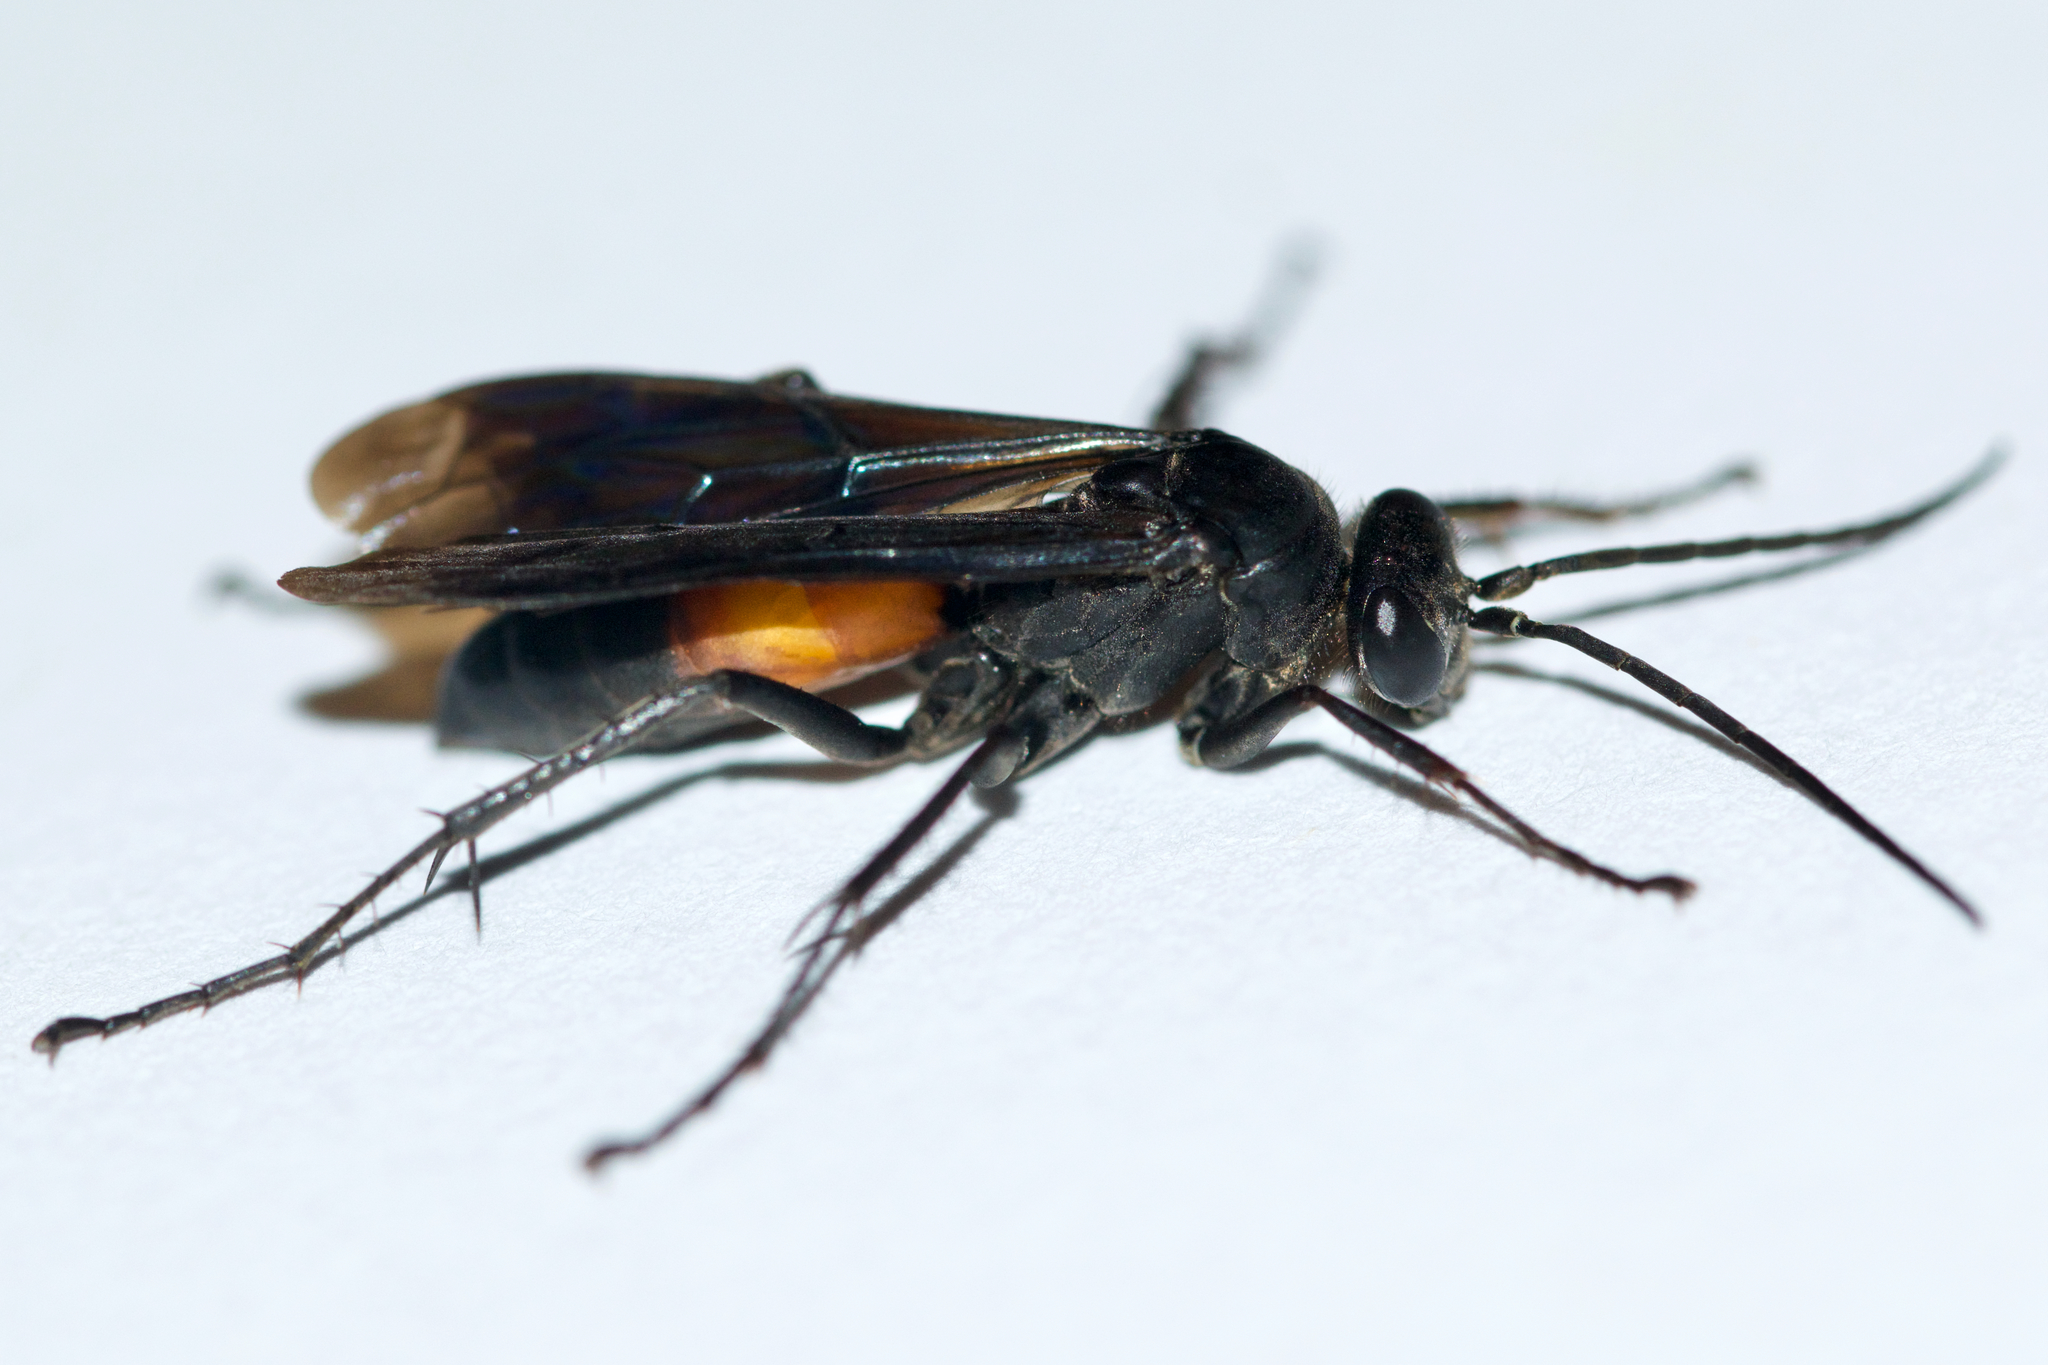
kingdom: Animalia
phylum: Arthropoda
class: Insecta
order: Hymenoptera
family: Pompilidae
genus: Sericopompilus
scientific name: Sericopompilus apicalis
